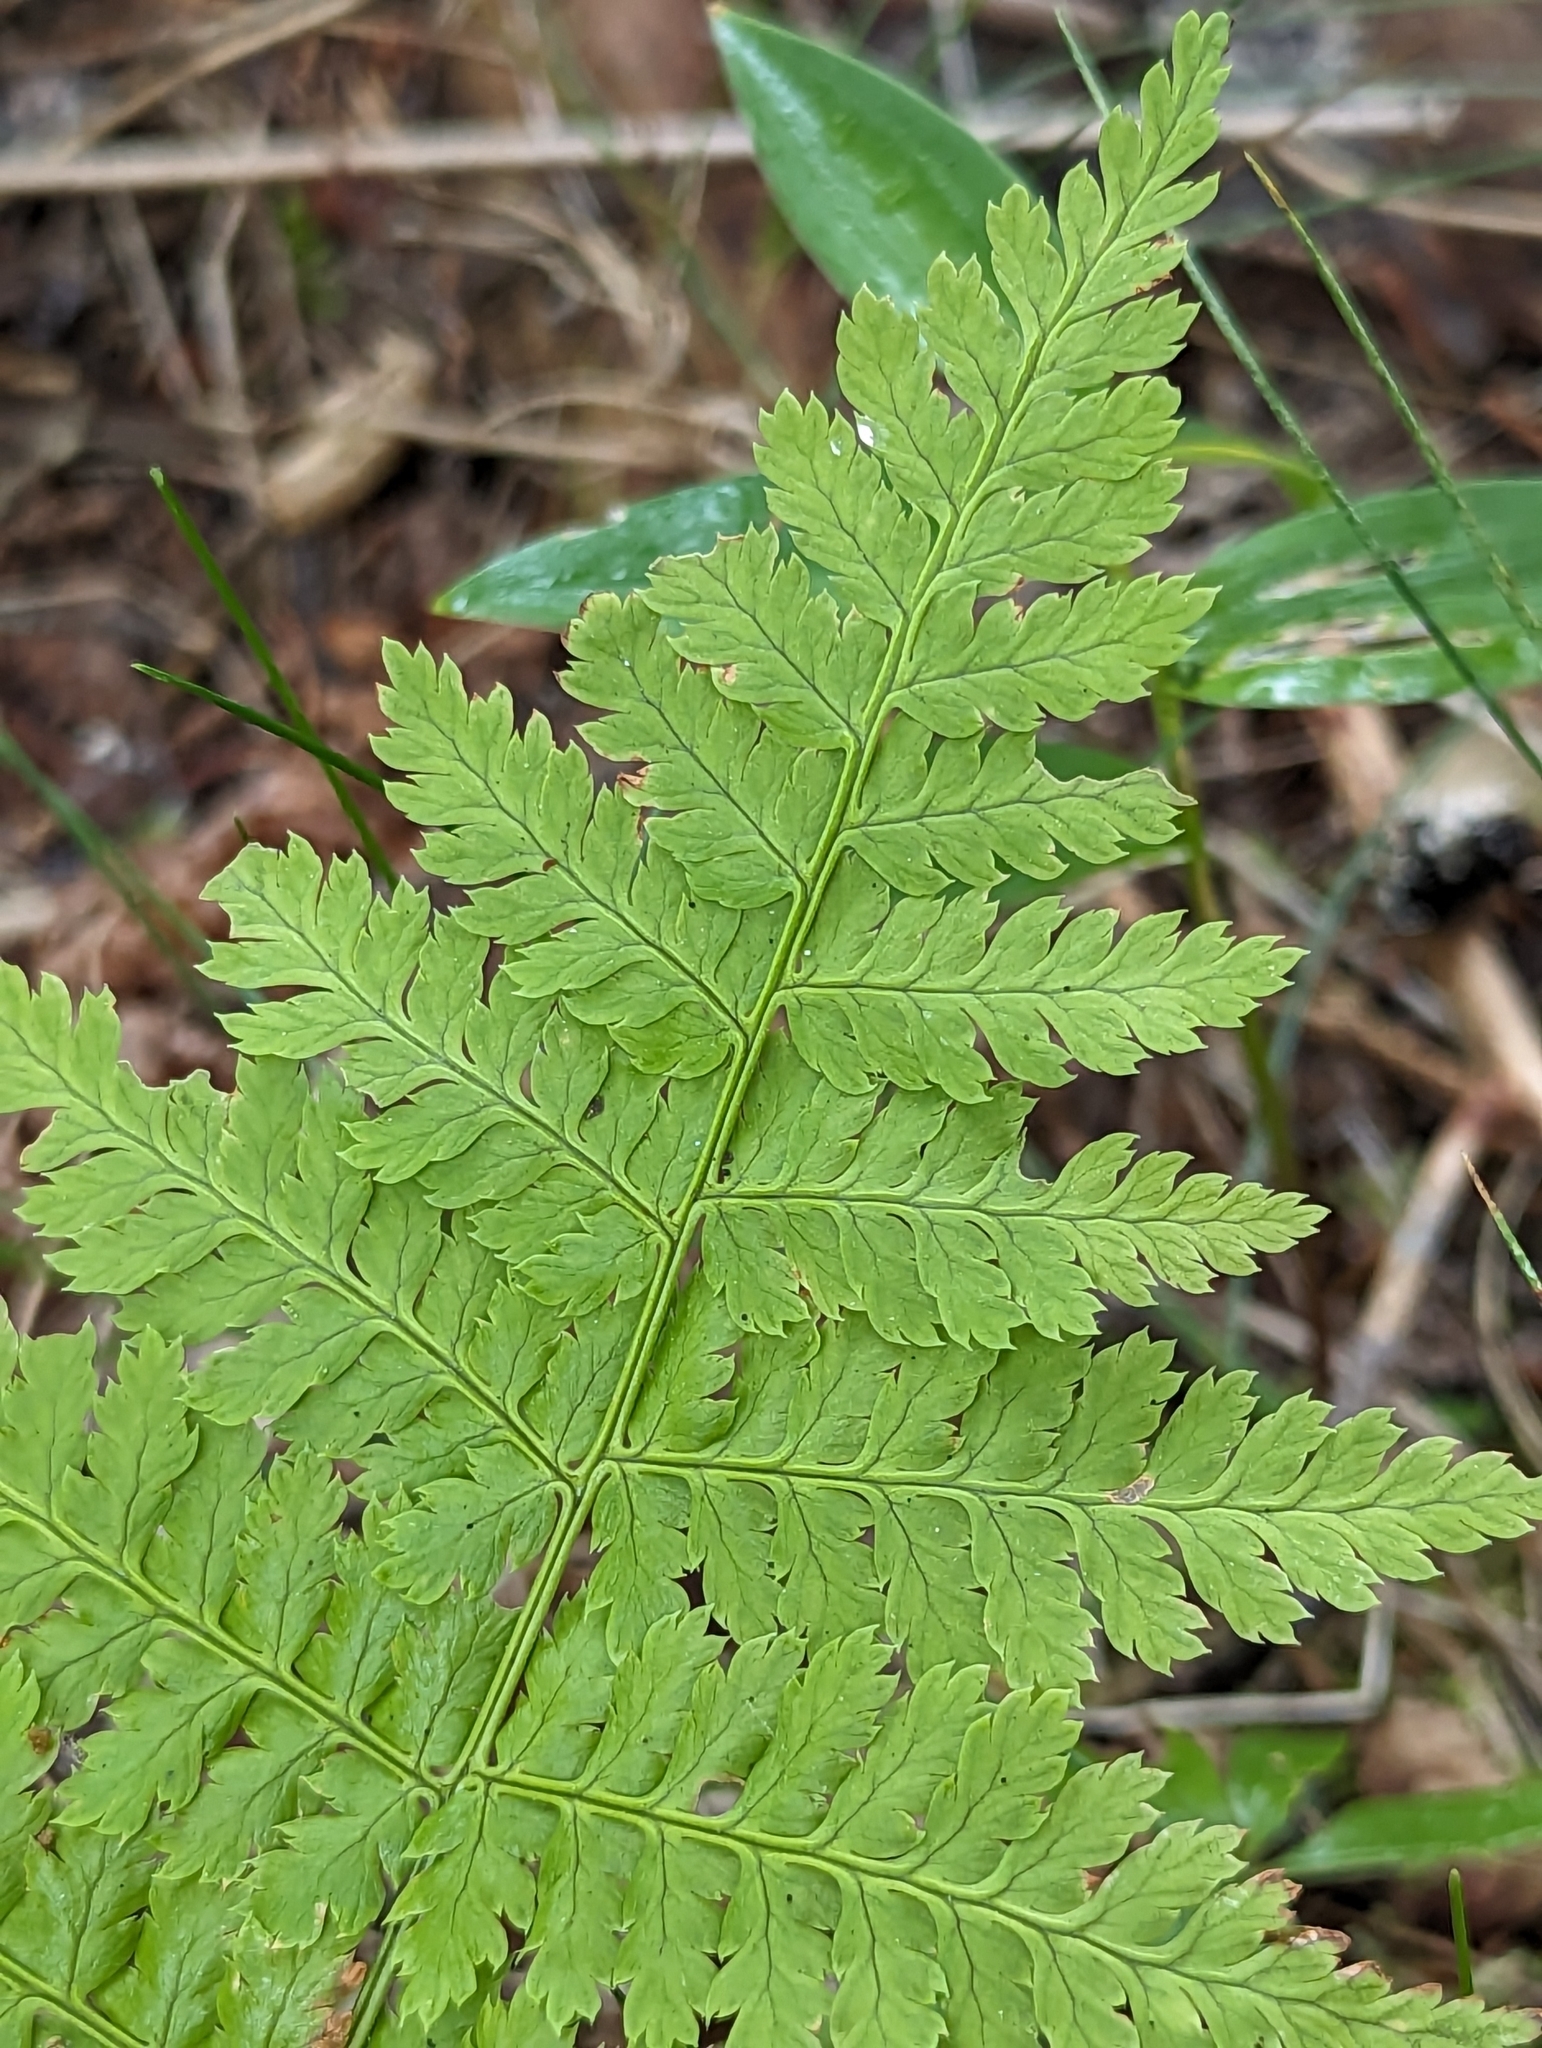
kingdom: Plantae
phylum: Tracheophyta
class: Polypodiopsida
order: Polypodiales
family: Dryopteridaceae
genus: Dryopteris
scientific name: Dryopteris
